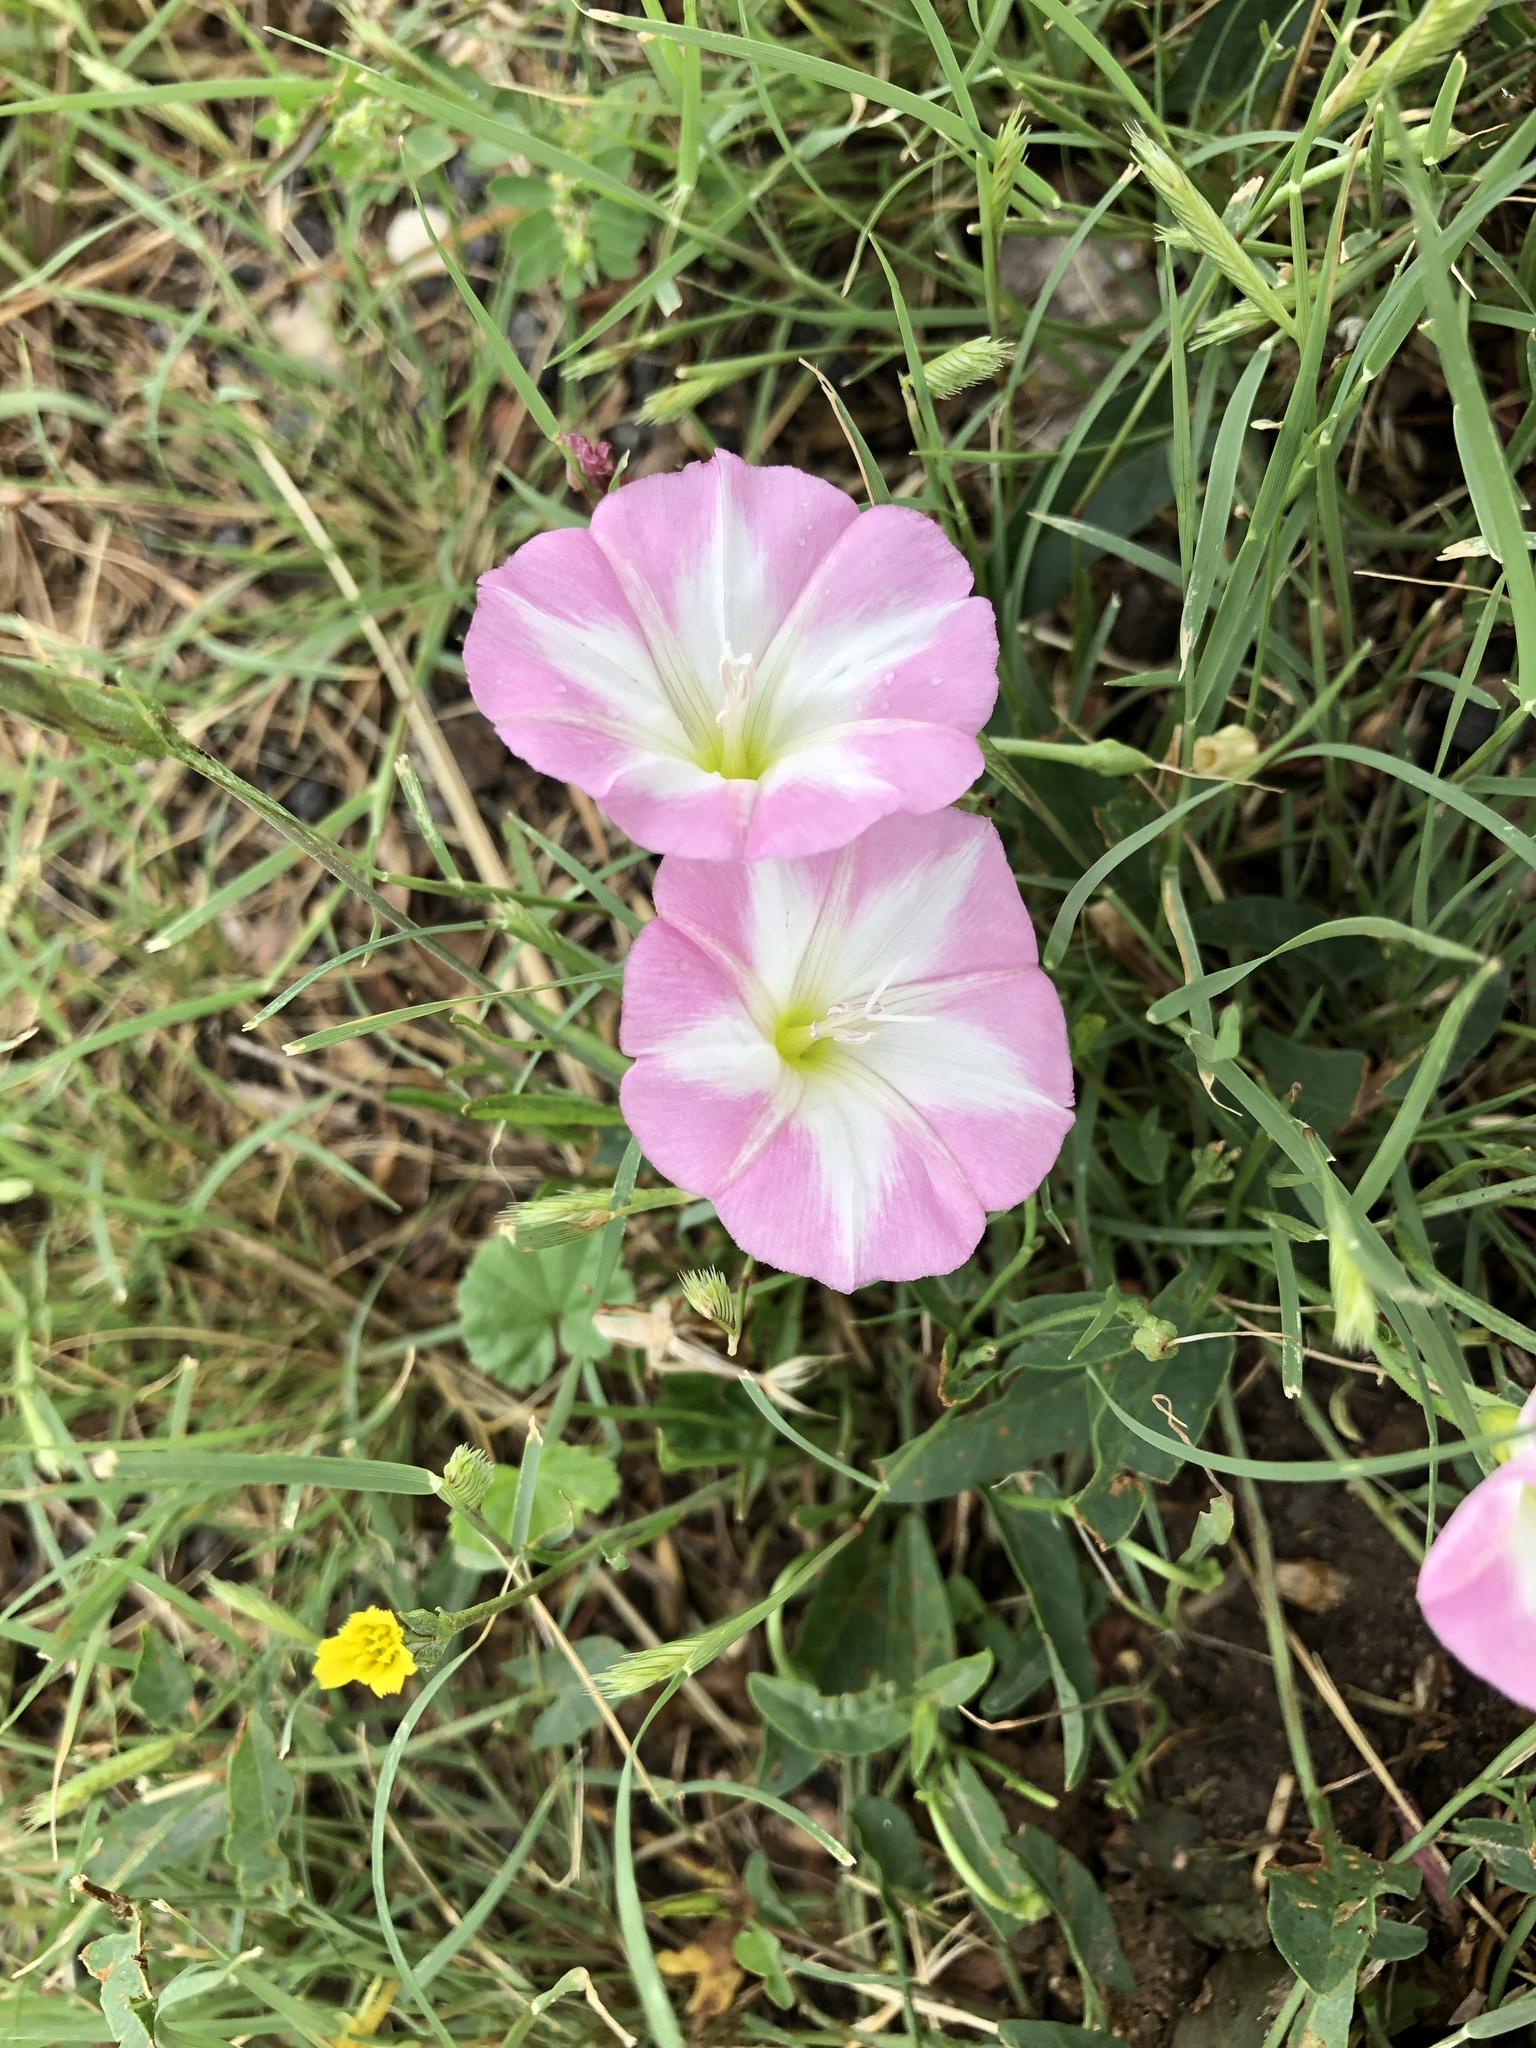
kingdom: Plantae
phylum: Tracheophyta
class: Magnoliopsida
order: Solanales
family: Convolvulaceae
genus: Convolvulus
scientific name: Convolvulus arvensis
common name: Field bindweed
